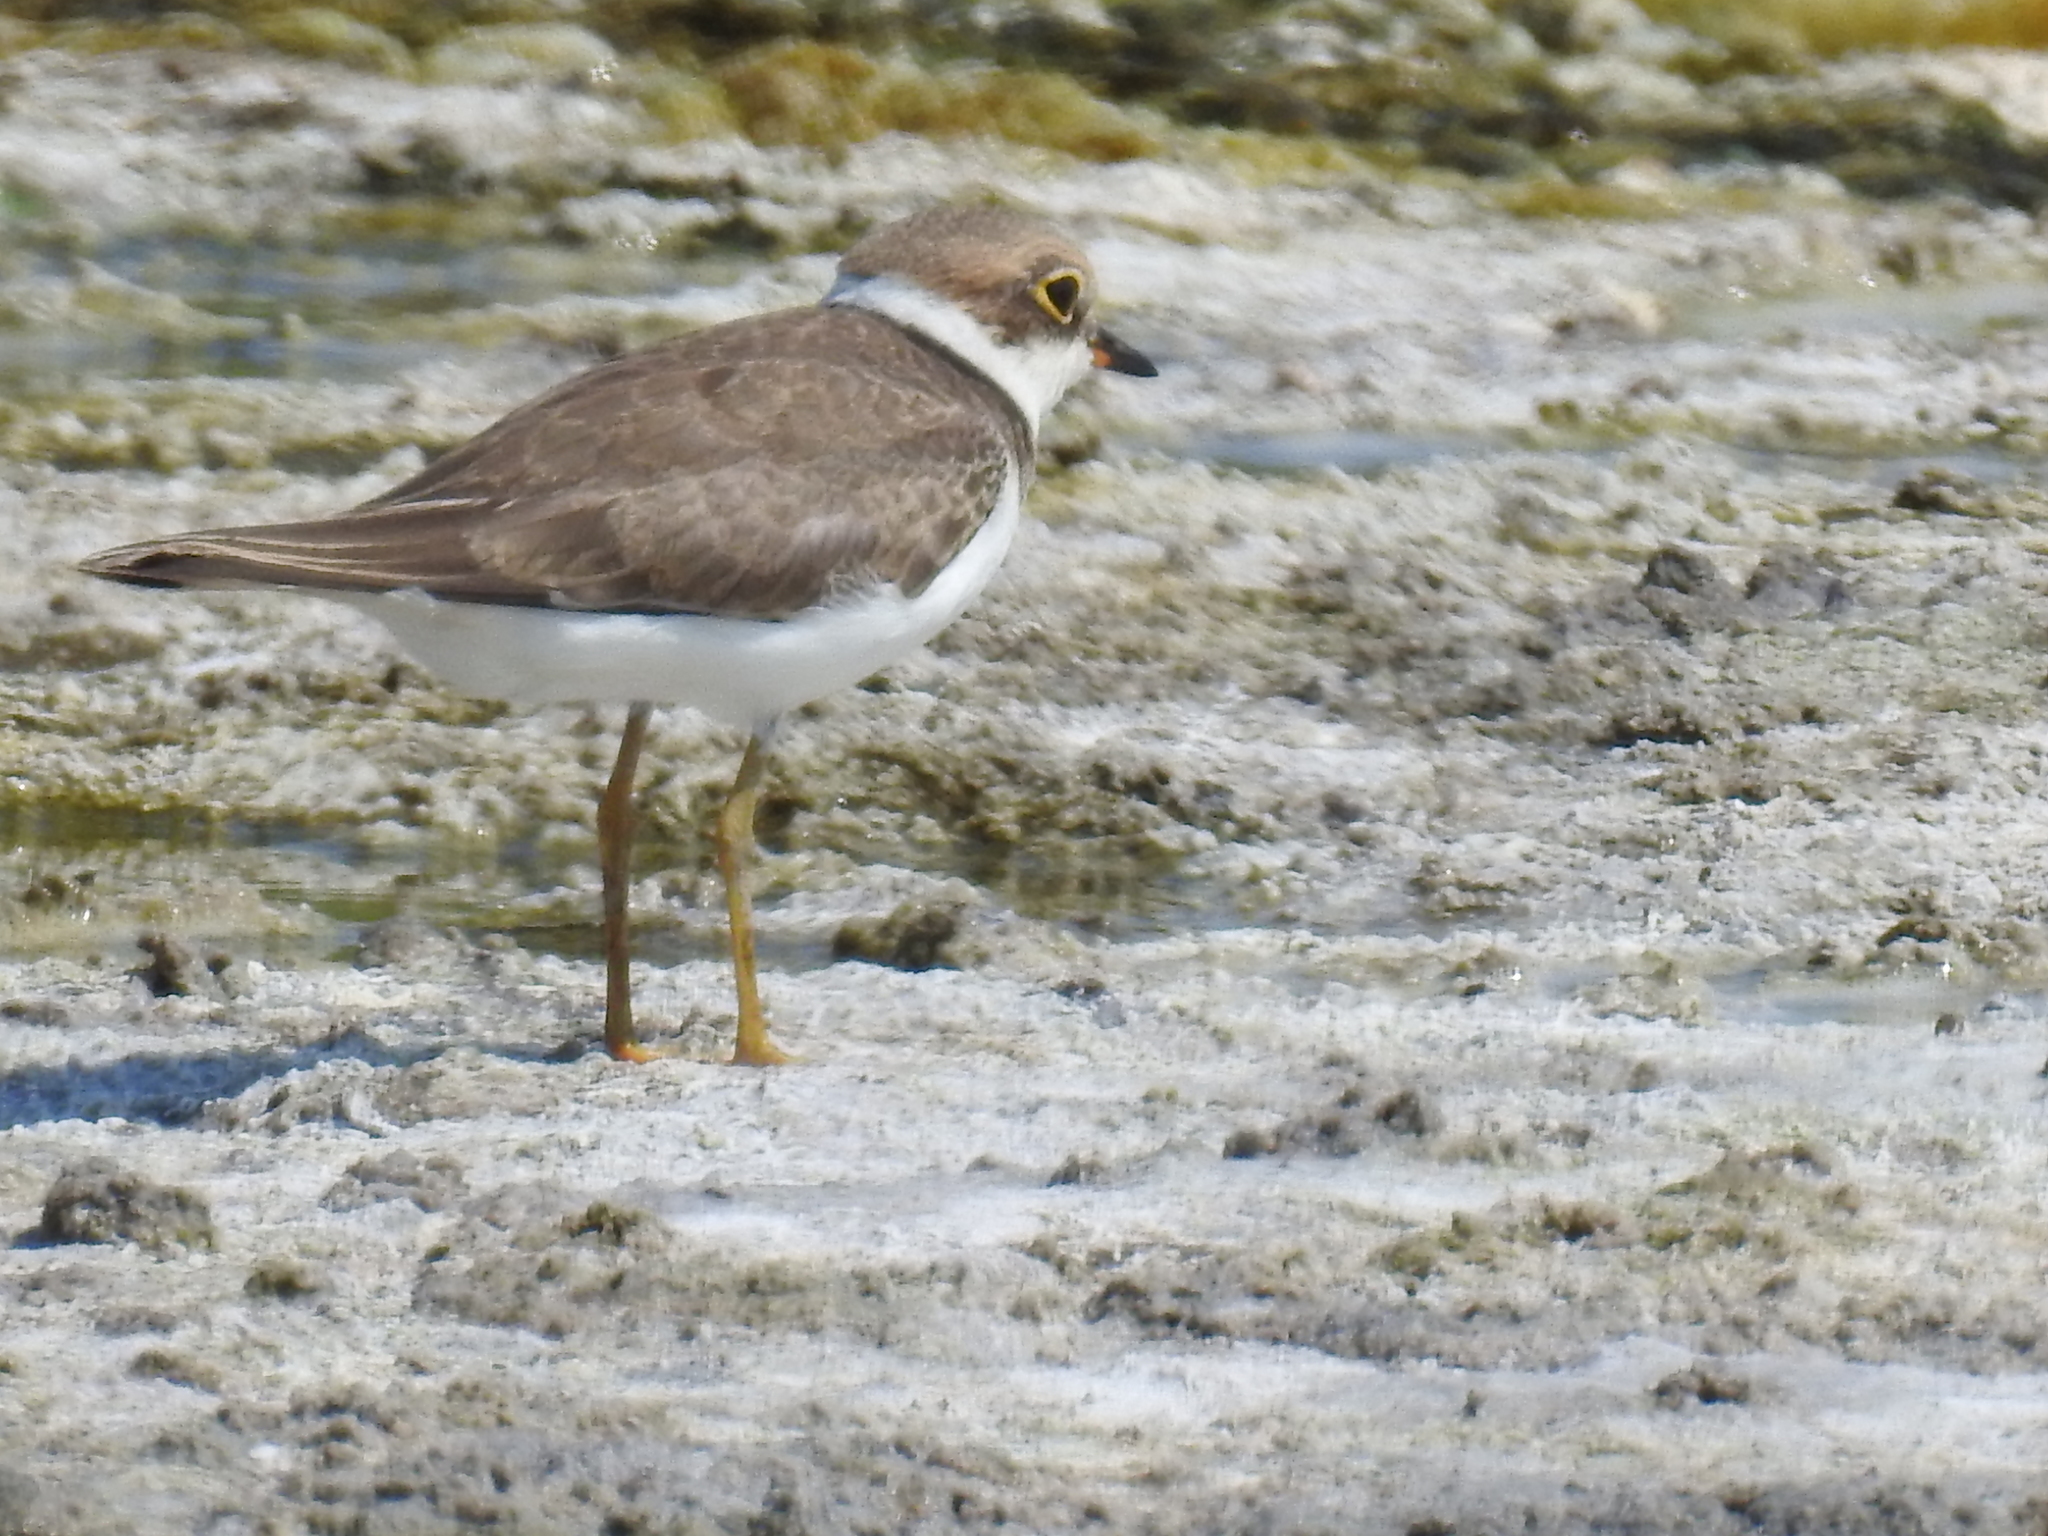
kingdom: Animalia
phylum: Chordata
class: Aves
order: Charadriiformes
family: Charadriidae
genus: Charadrius
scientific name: Charadrius dubius
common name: Little ringed plover
